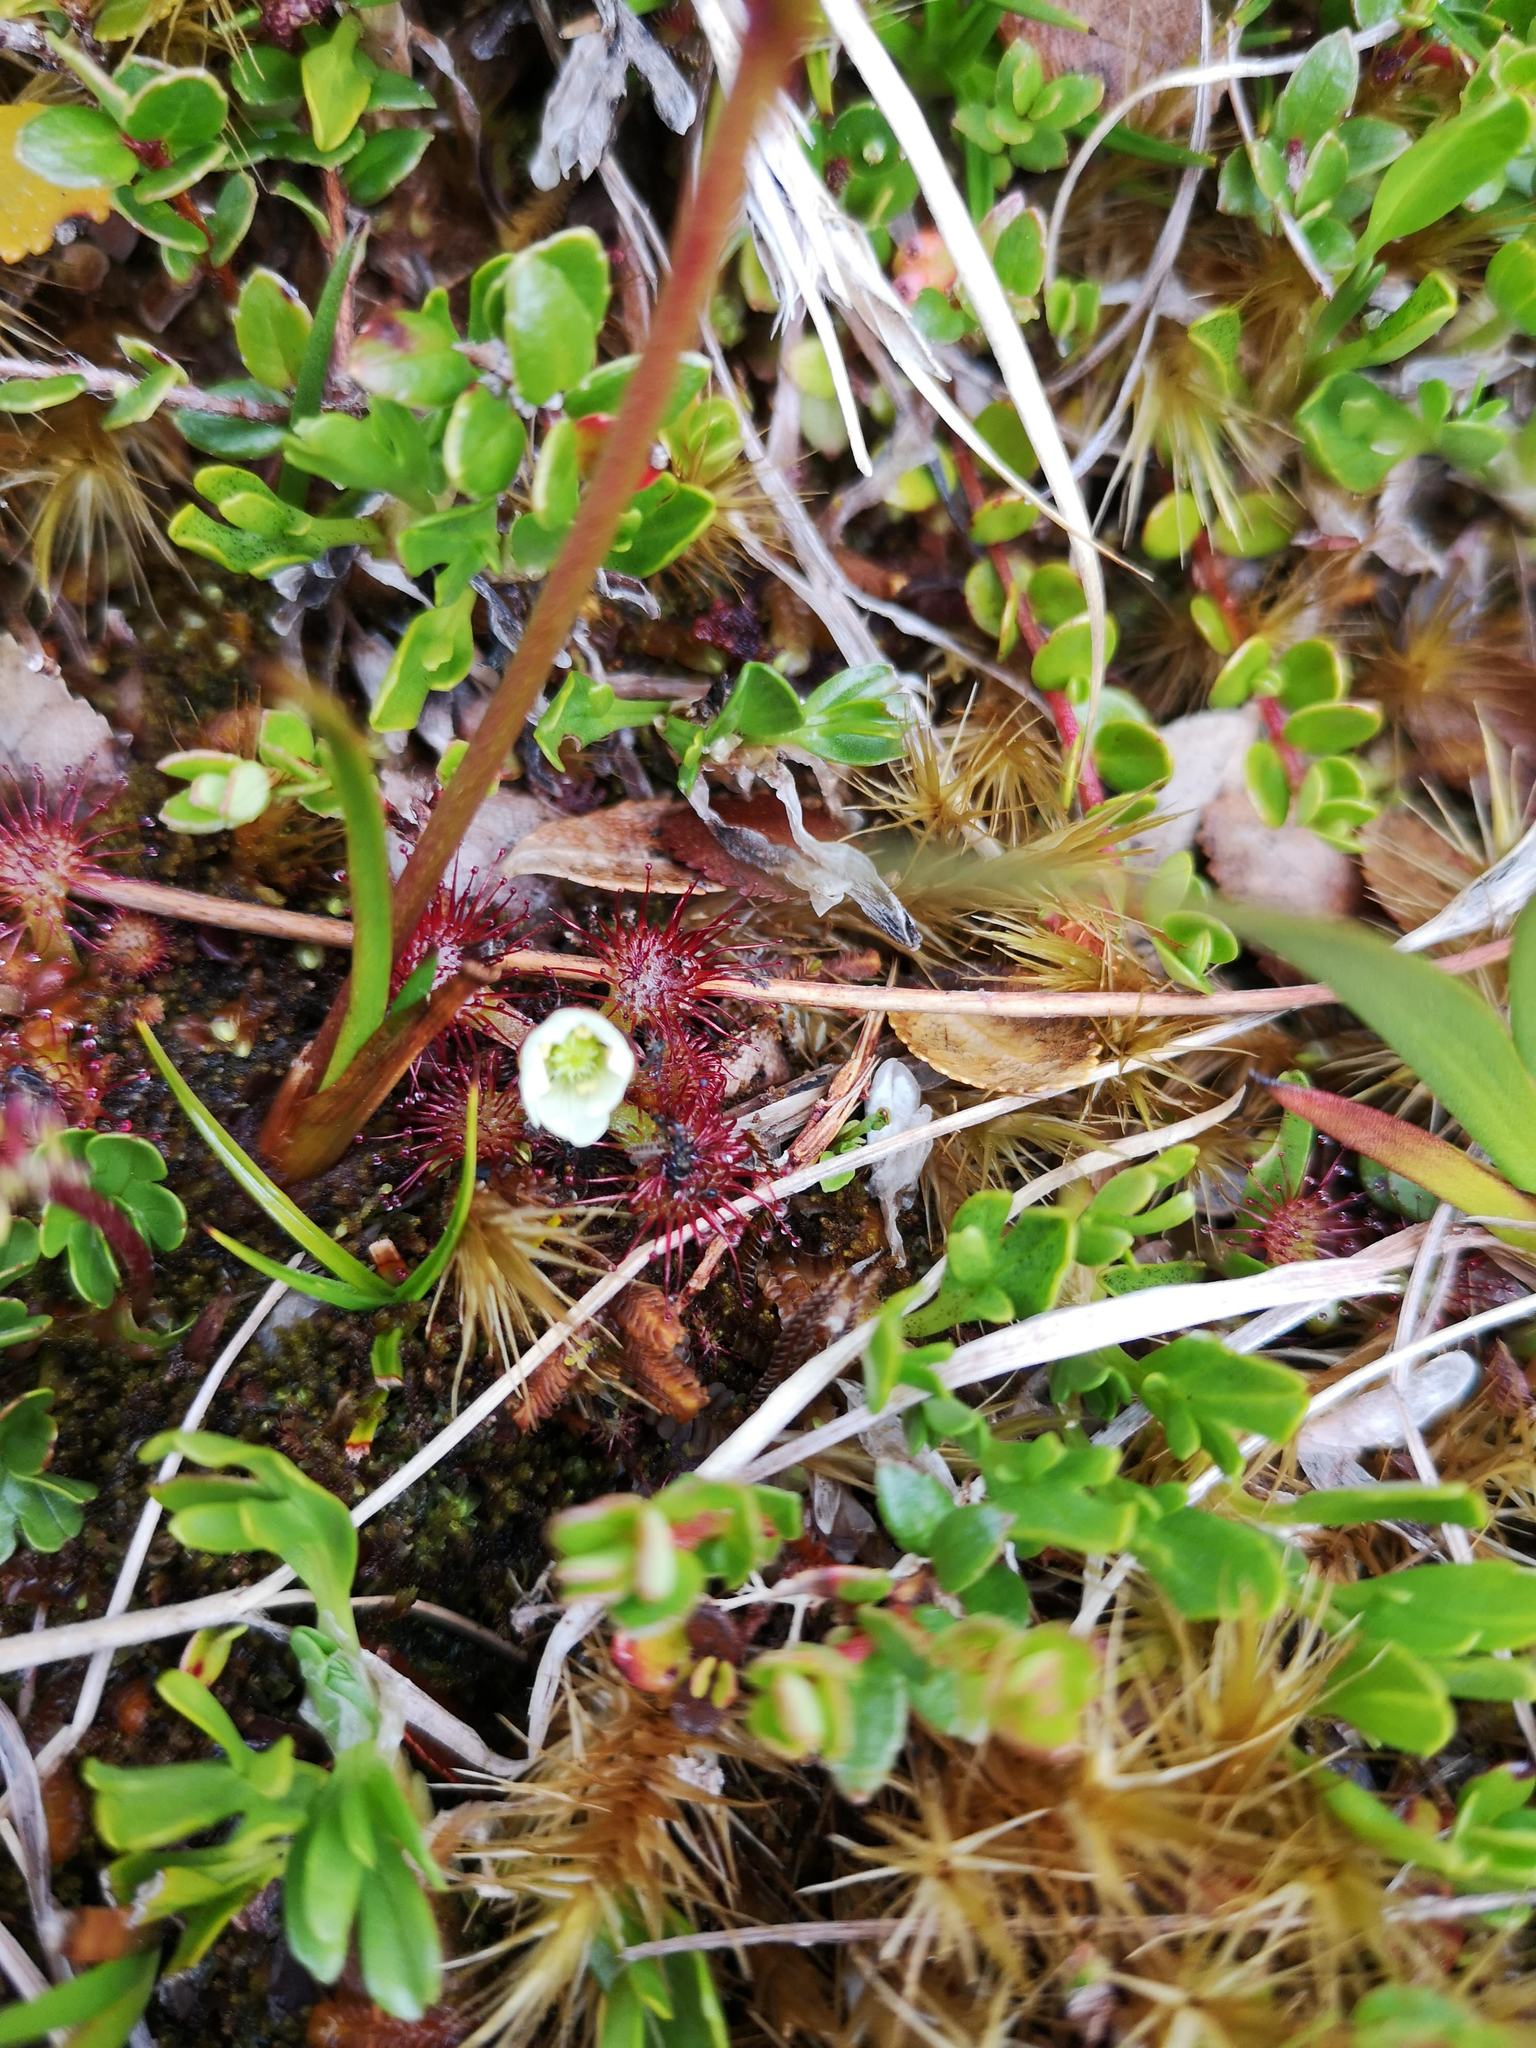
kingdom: Plantae
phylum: Tracheophyta
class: Magnoliopsida
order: Caryophyllales
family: Droseraceae
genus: Drosera
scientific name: Drosera uniflora
